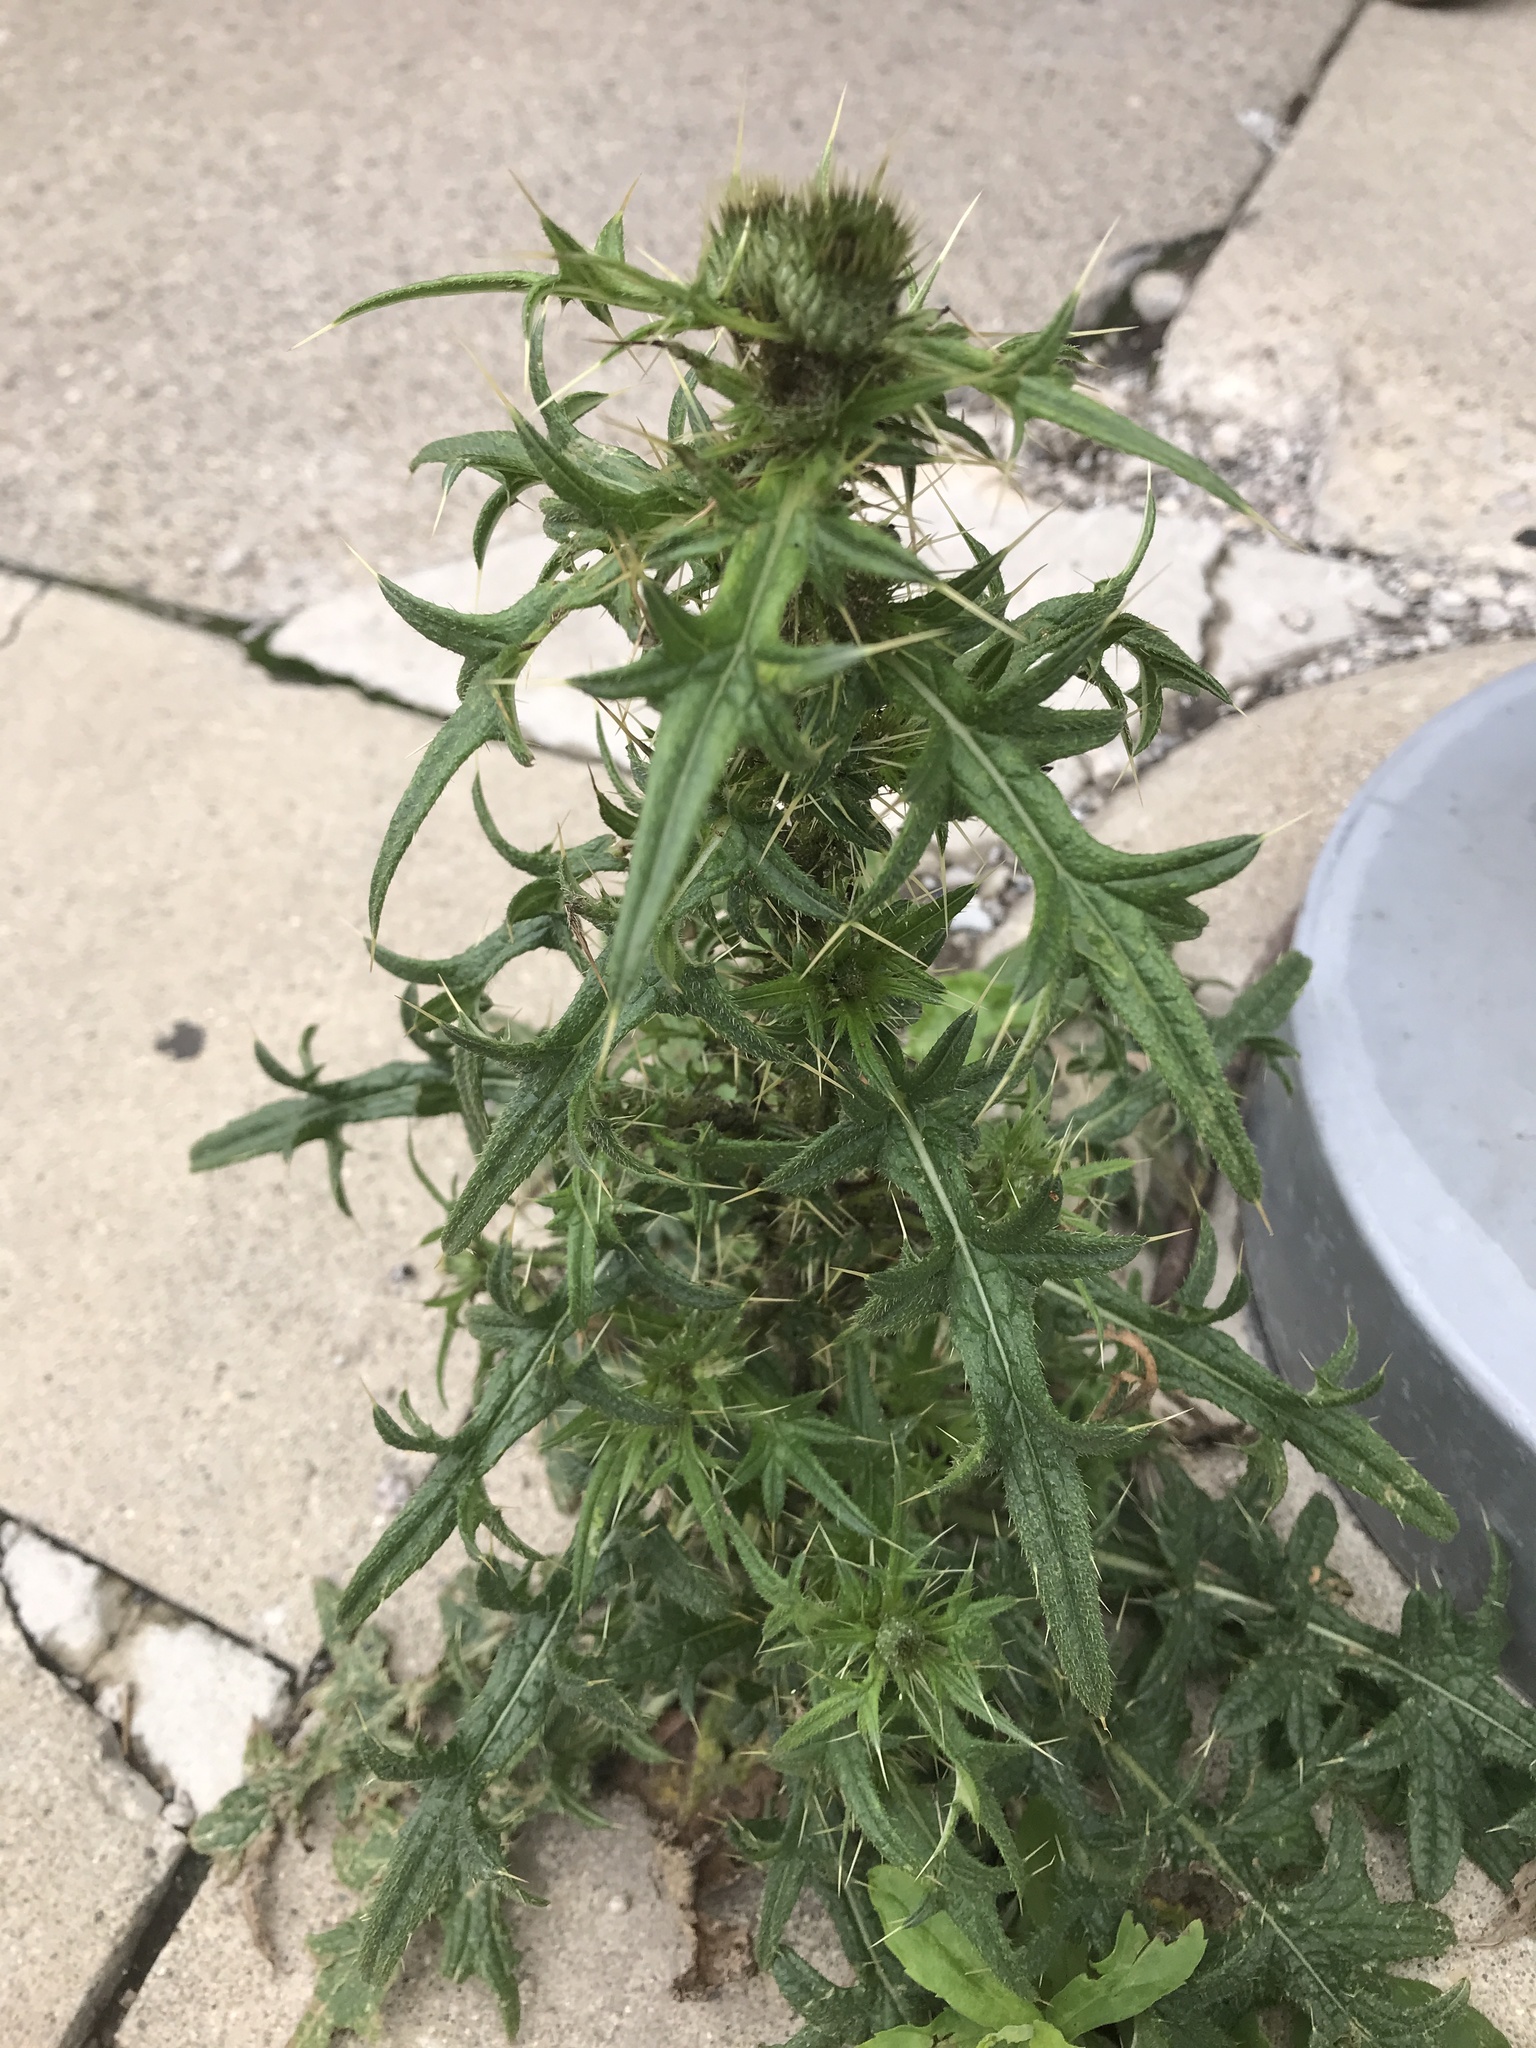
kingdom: Plantae
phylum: Tracheophyta
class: Magnoliopsida
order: Asterales
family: Asteraceae
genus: Cirsium
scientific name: Cirsium vulgare
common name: Bull thistle
